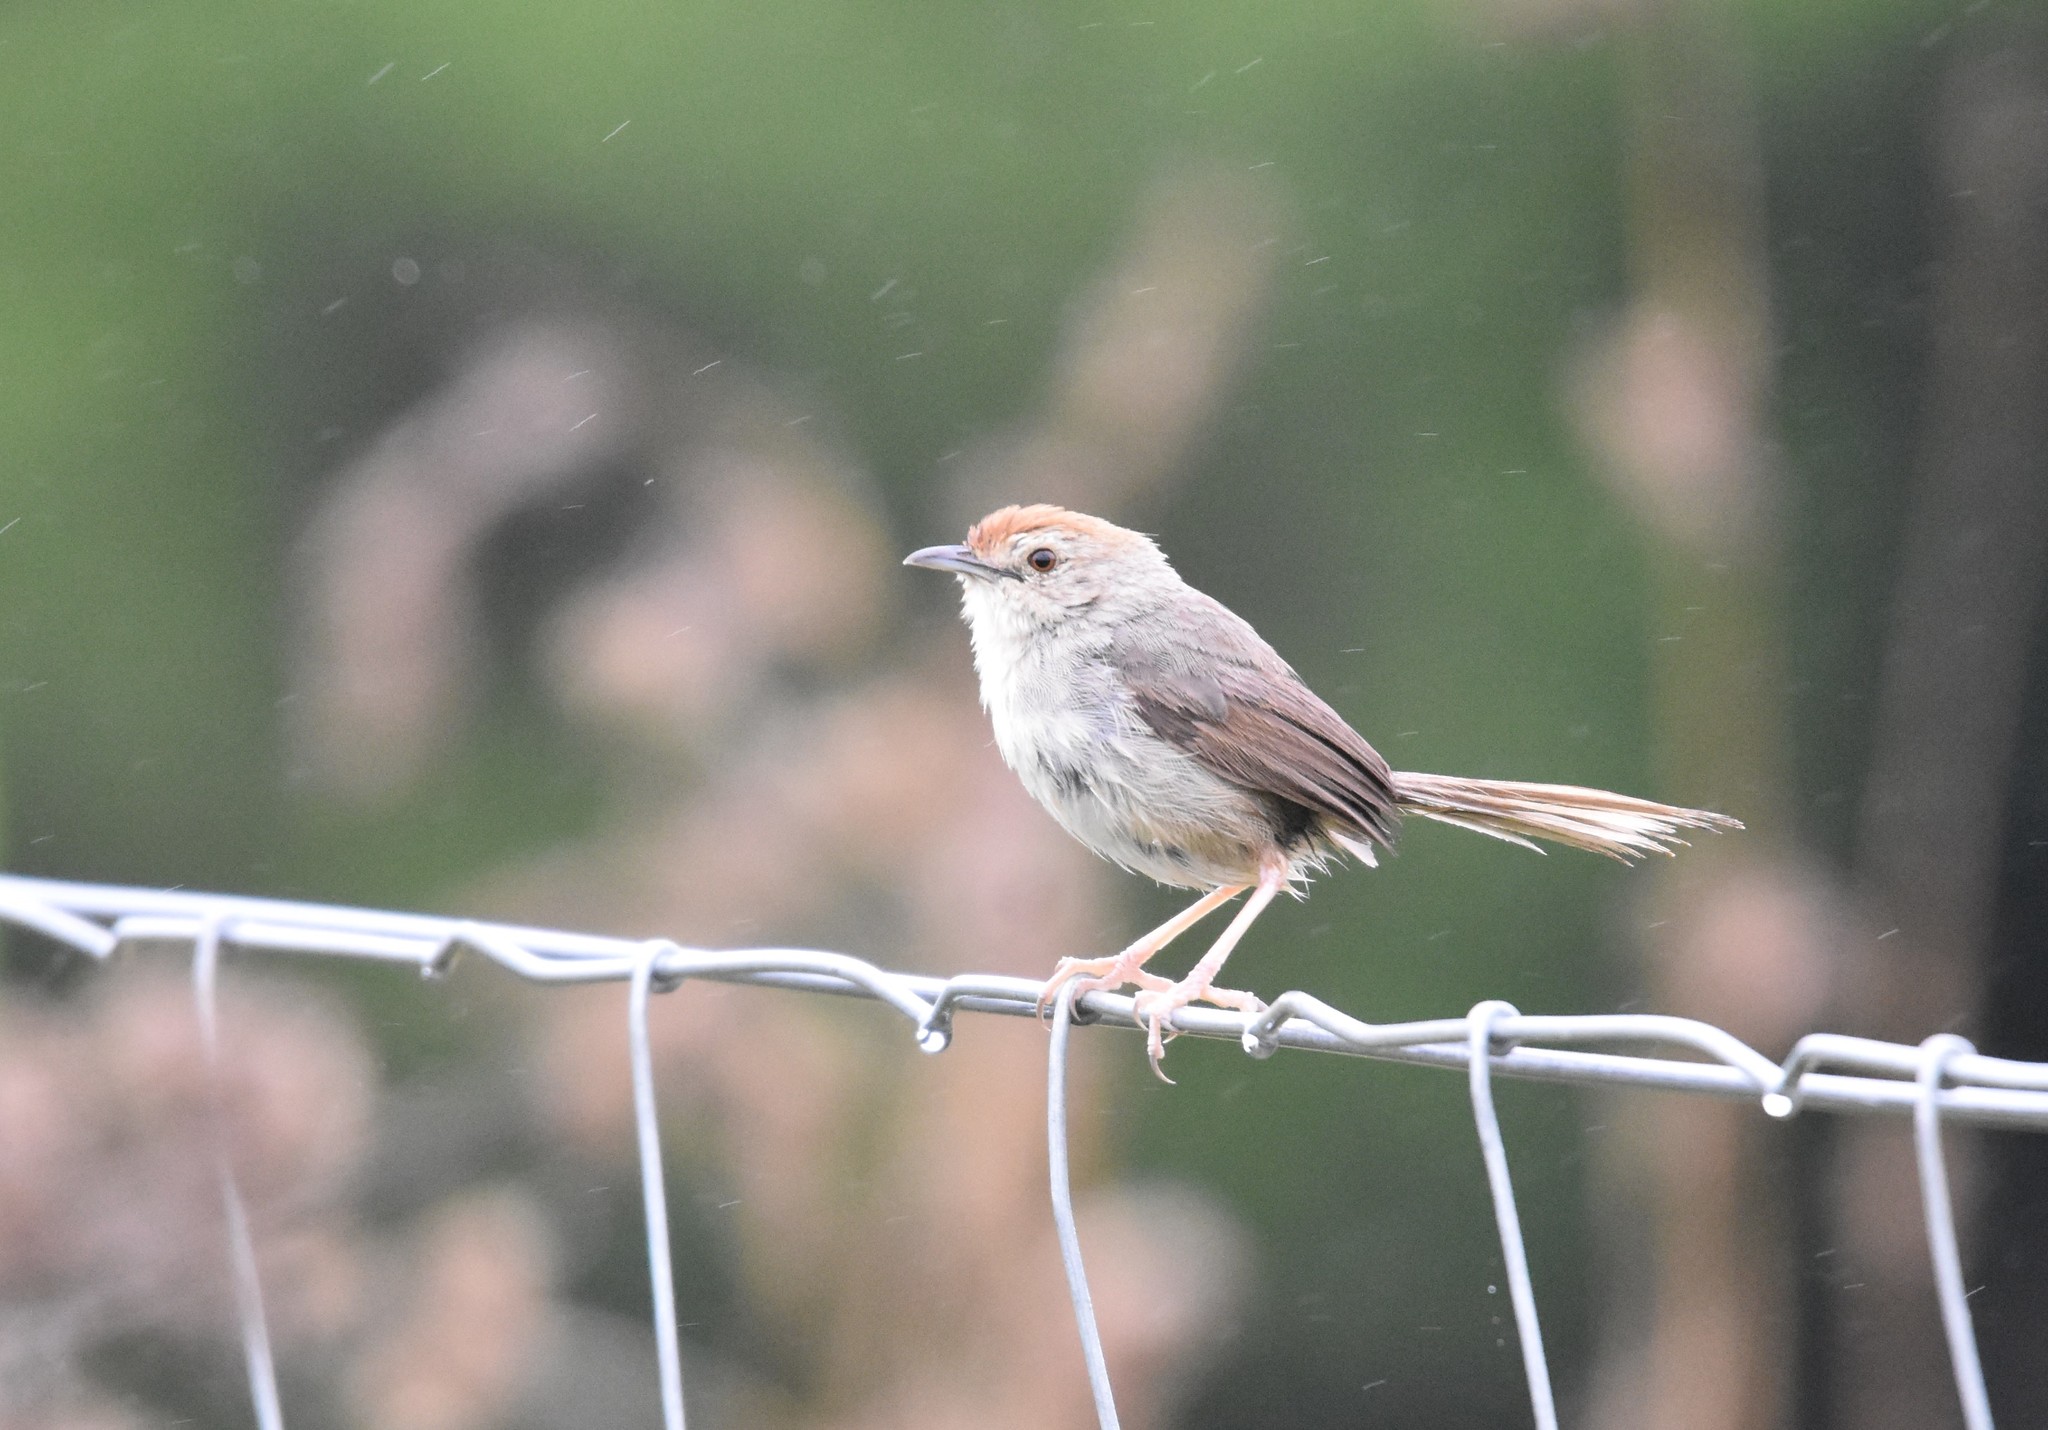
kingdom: Animalia
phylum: Chordata
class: Aves
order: Passeriformes
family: Cisticolidae
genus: Cisticola
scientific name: Cisticola aberrans
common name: Lazy cisticola
